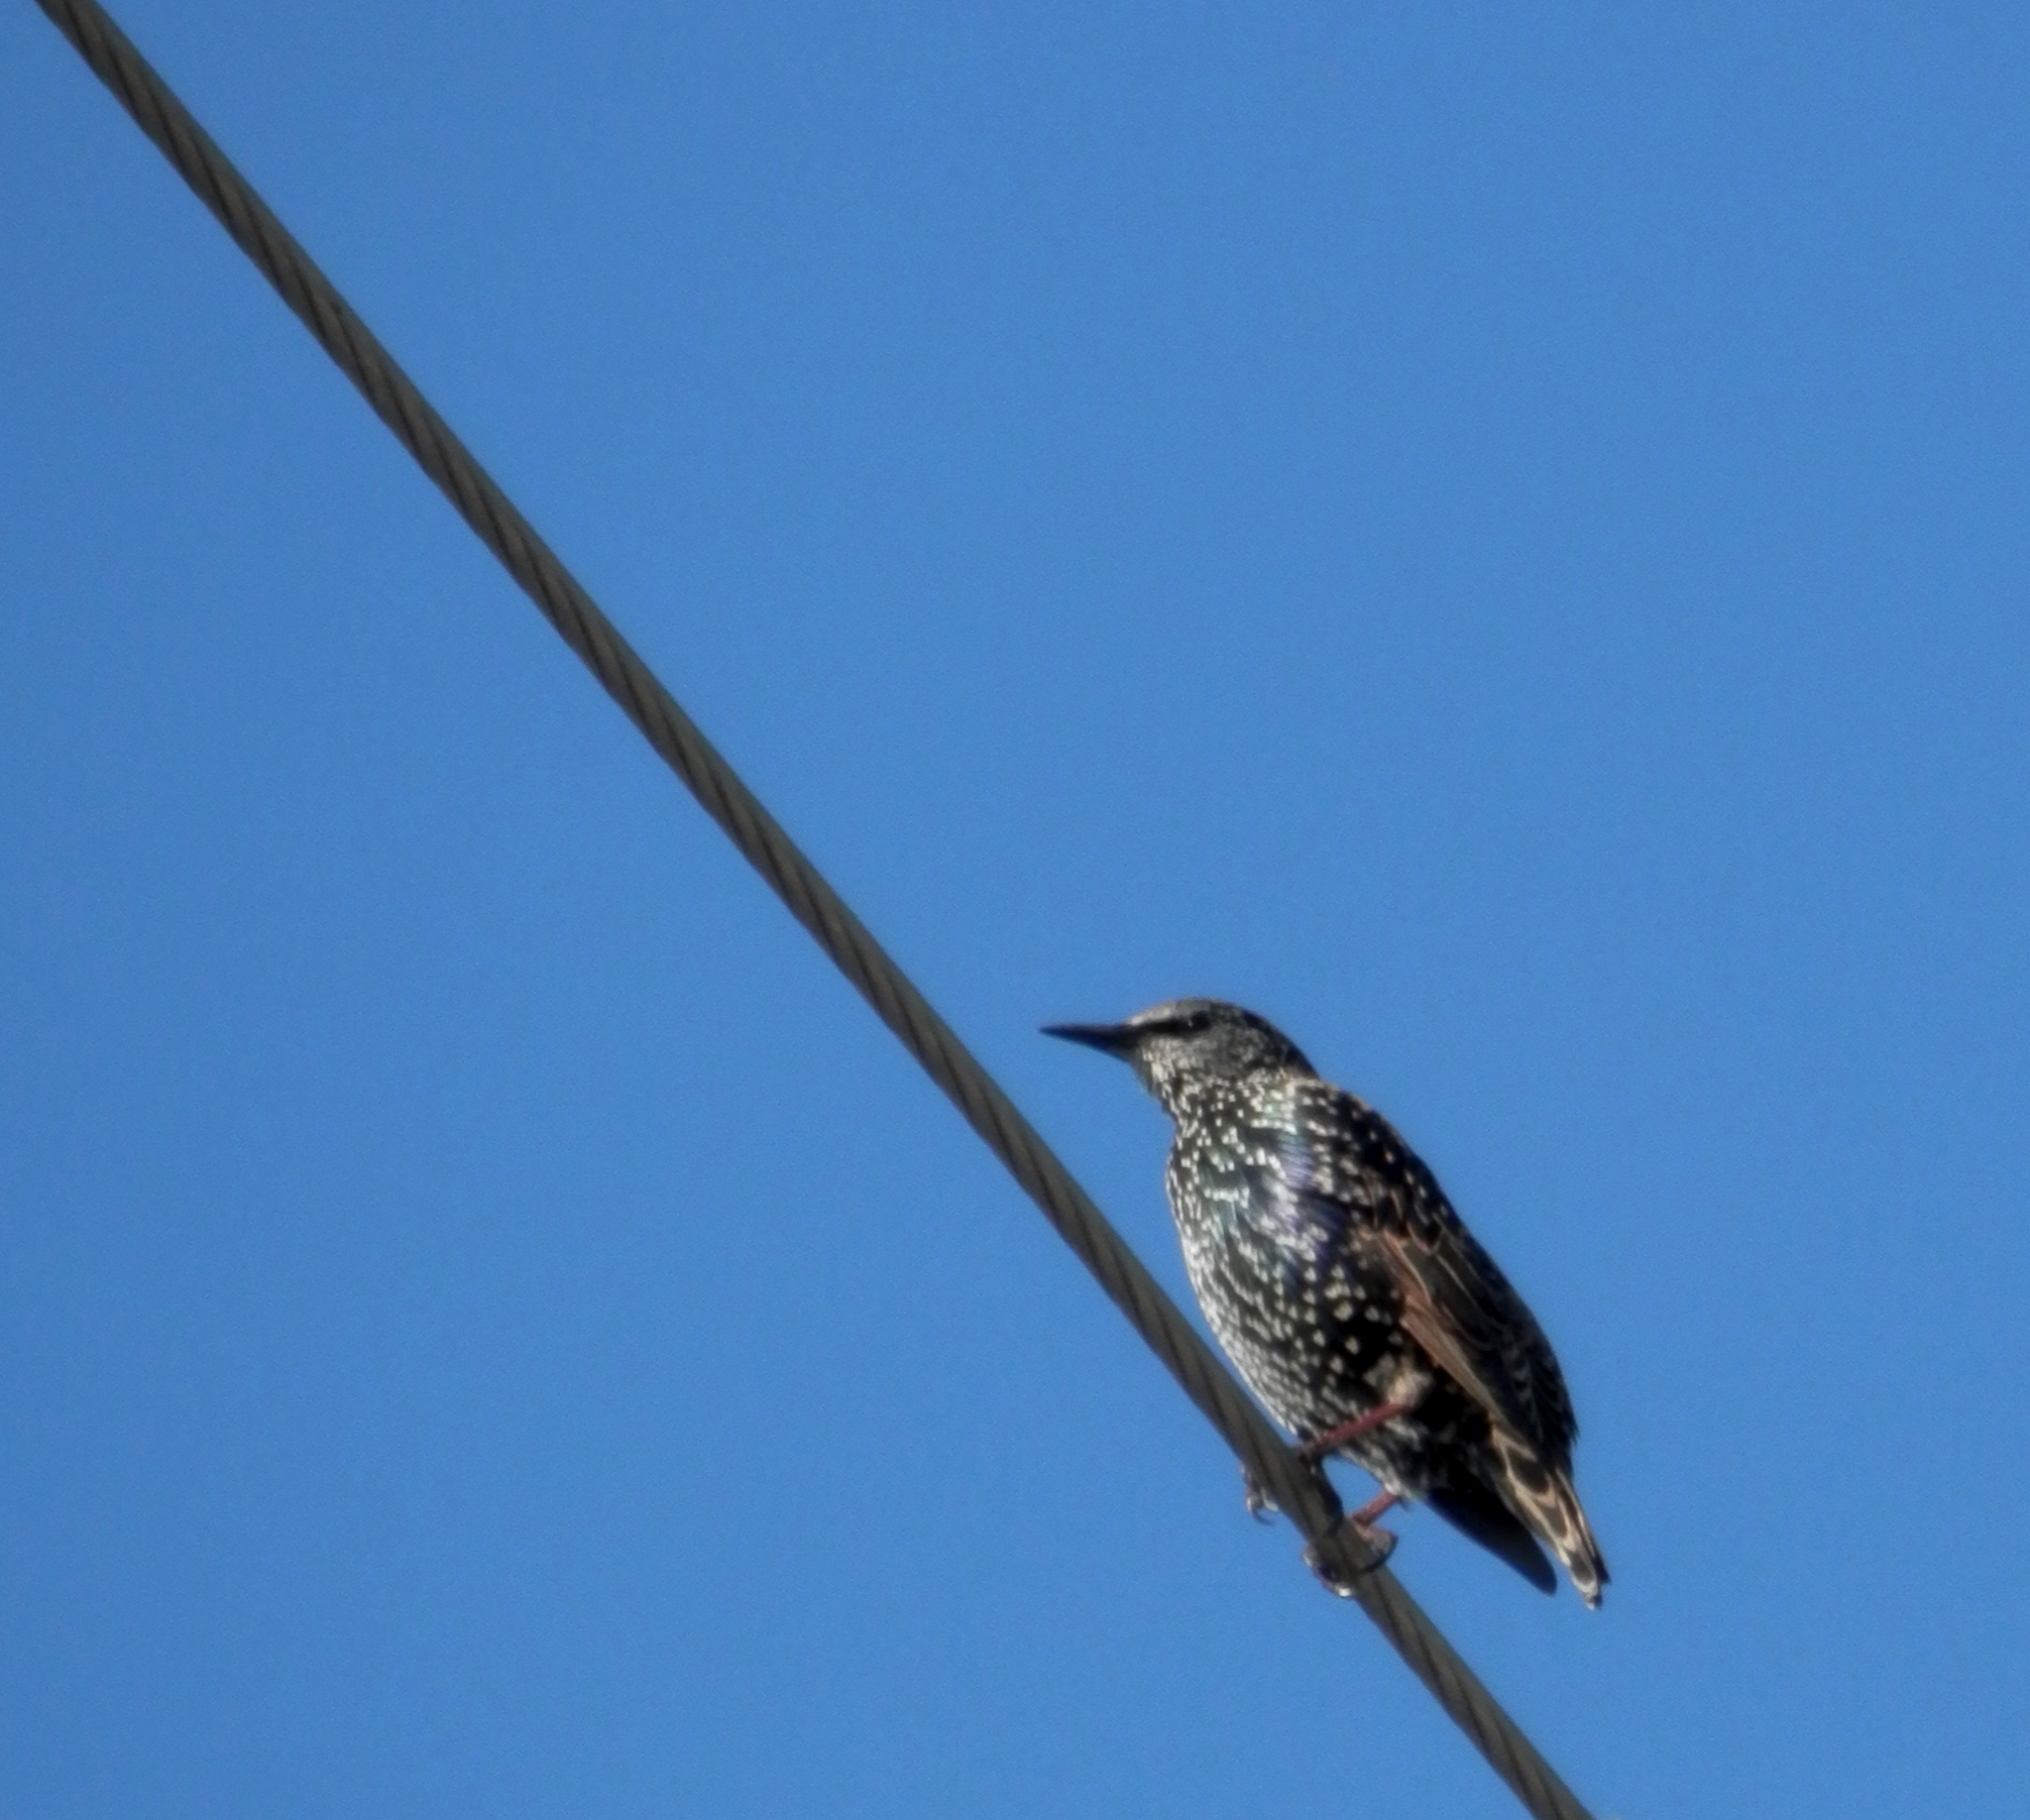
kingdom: Animalia
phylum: Chordata
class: Aves
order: Passeriformes
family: Sturnidae
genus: Sturnus
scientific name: Sturnus vulgaris
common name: Common starling
